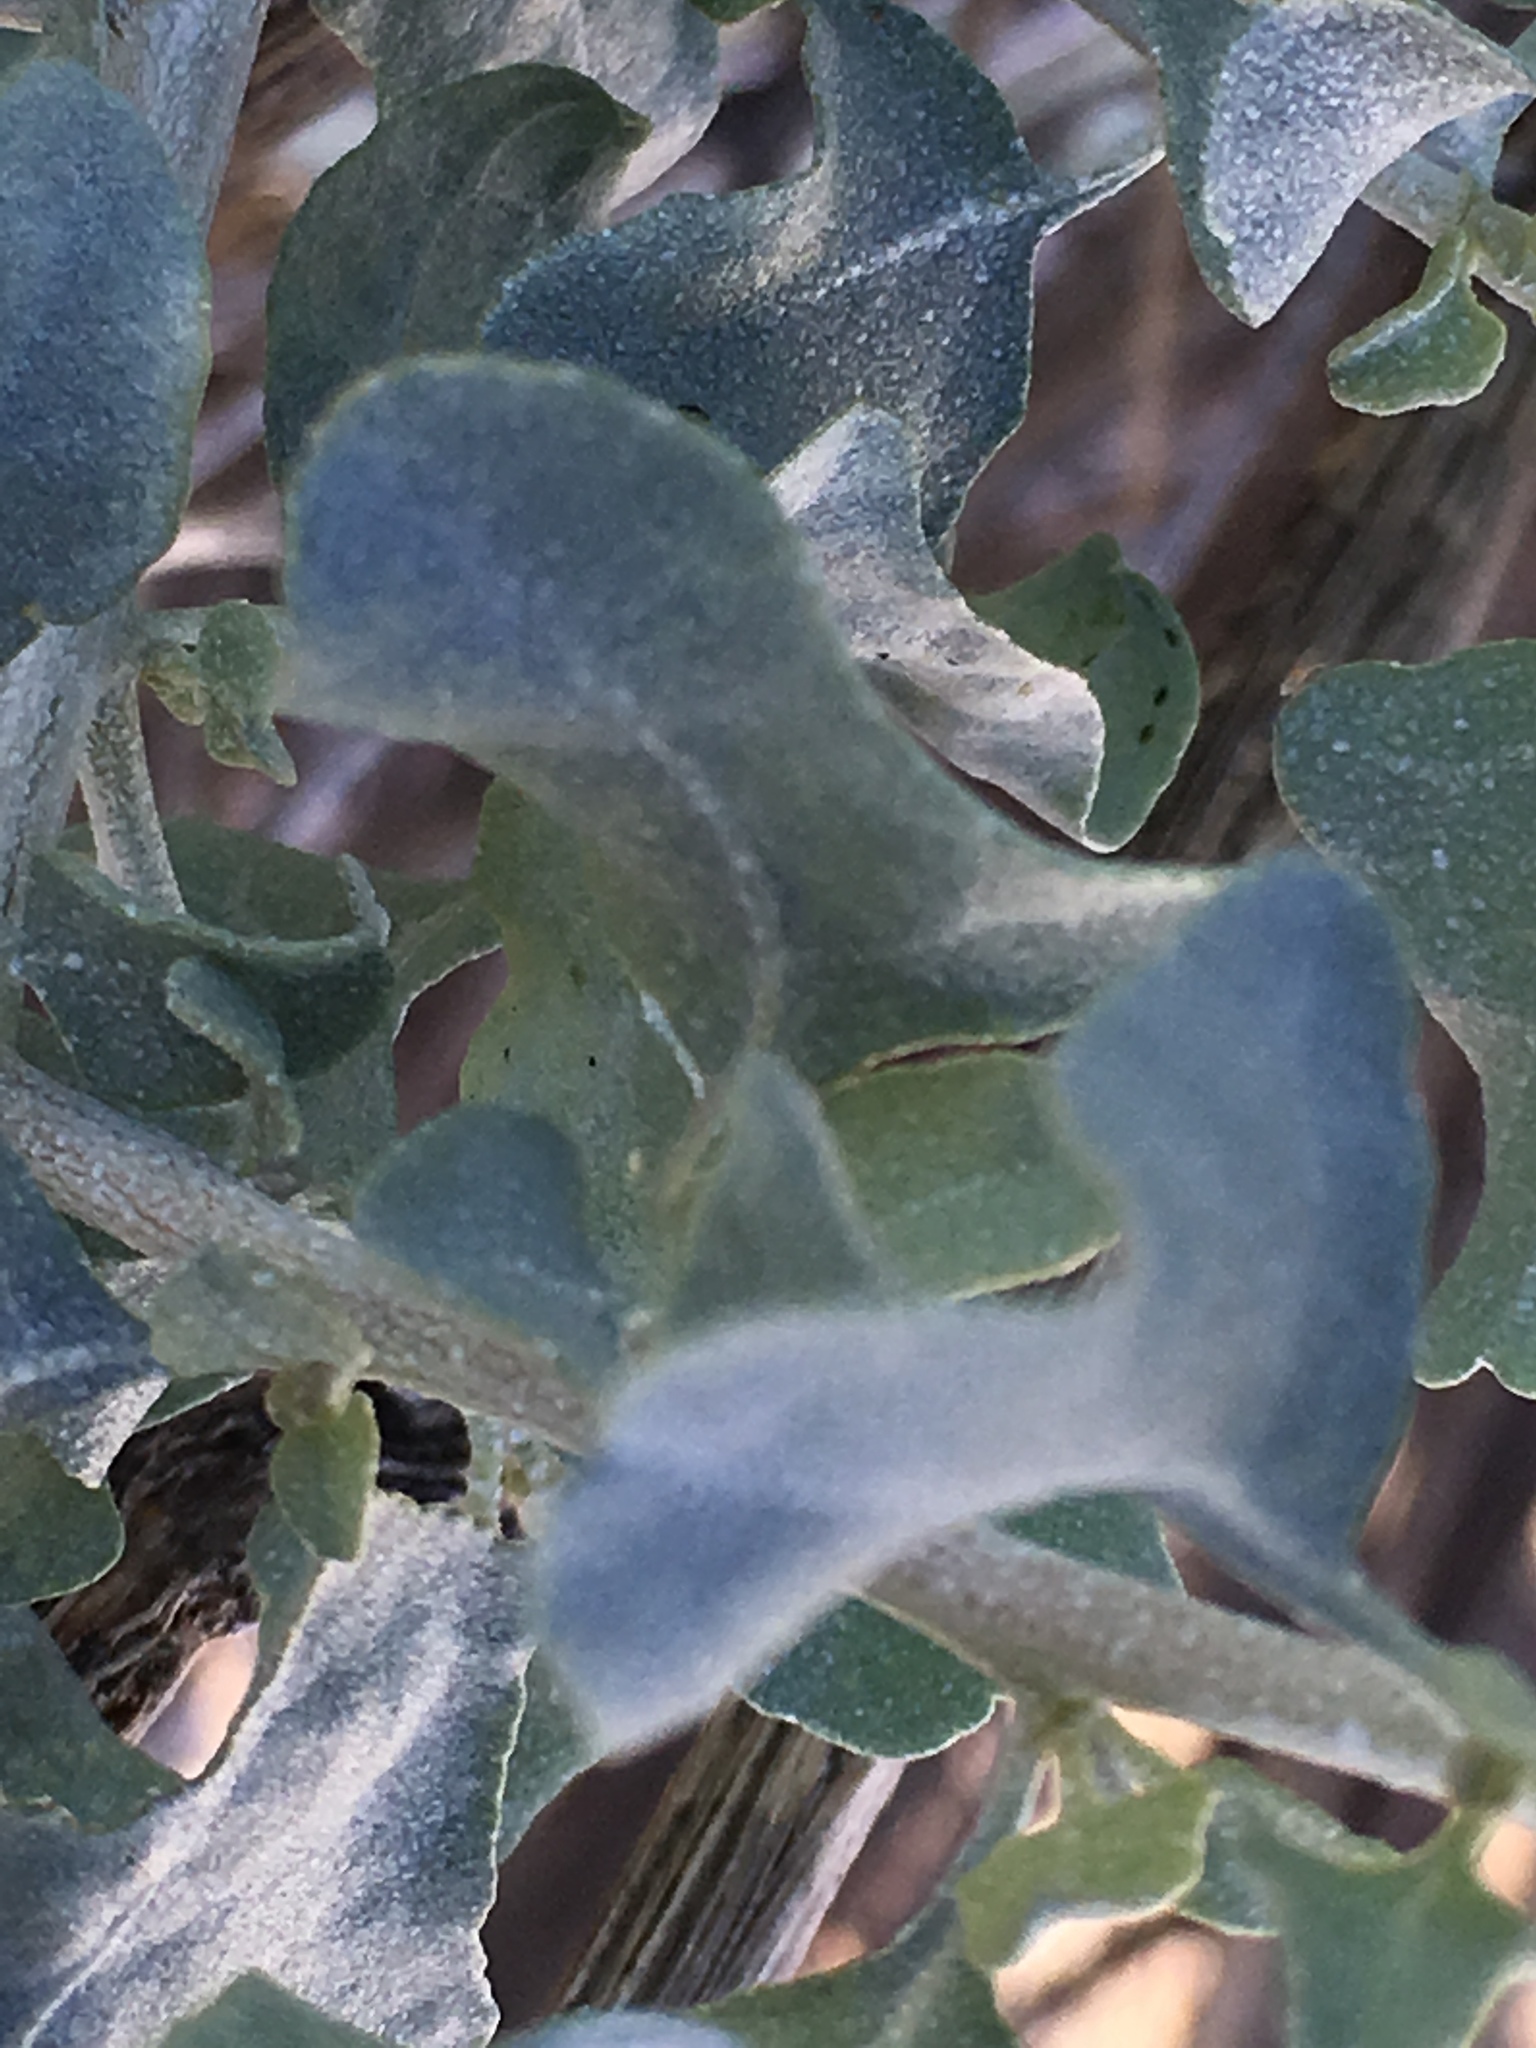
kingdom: Plantae
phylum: Tracheophyta
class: Magnoliopsida
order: Caryophyllales
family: Amaranthaceae
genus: Atriplex
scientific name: Atriplex lentiformis
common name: Big saltbush
